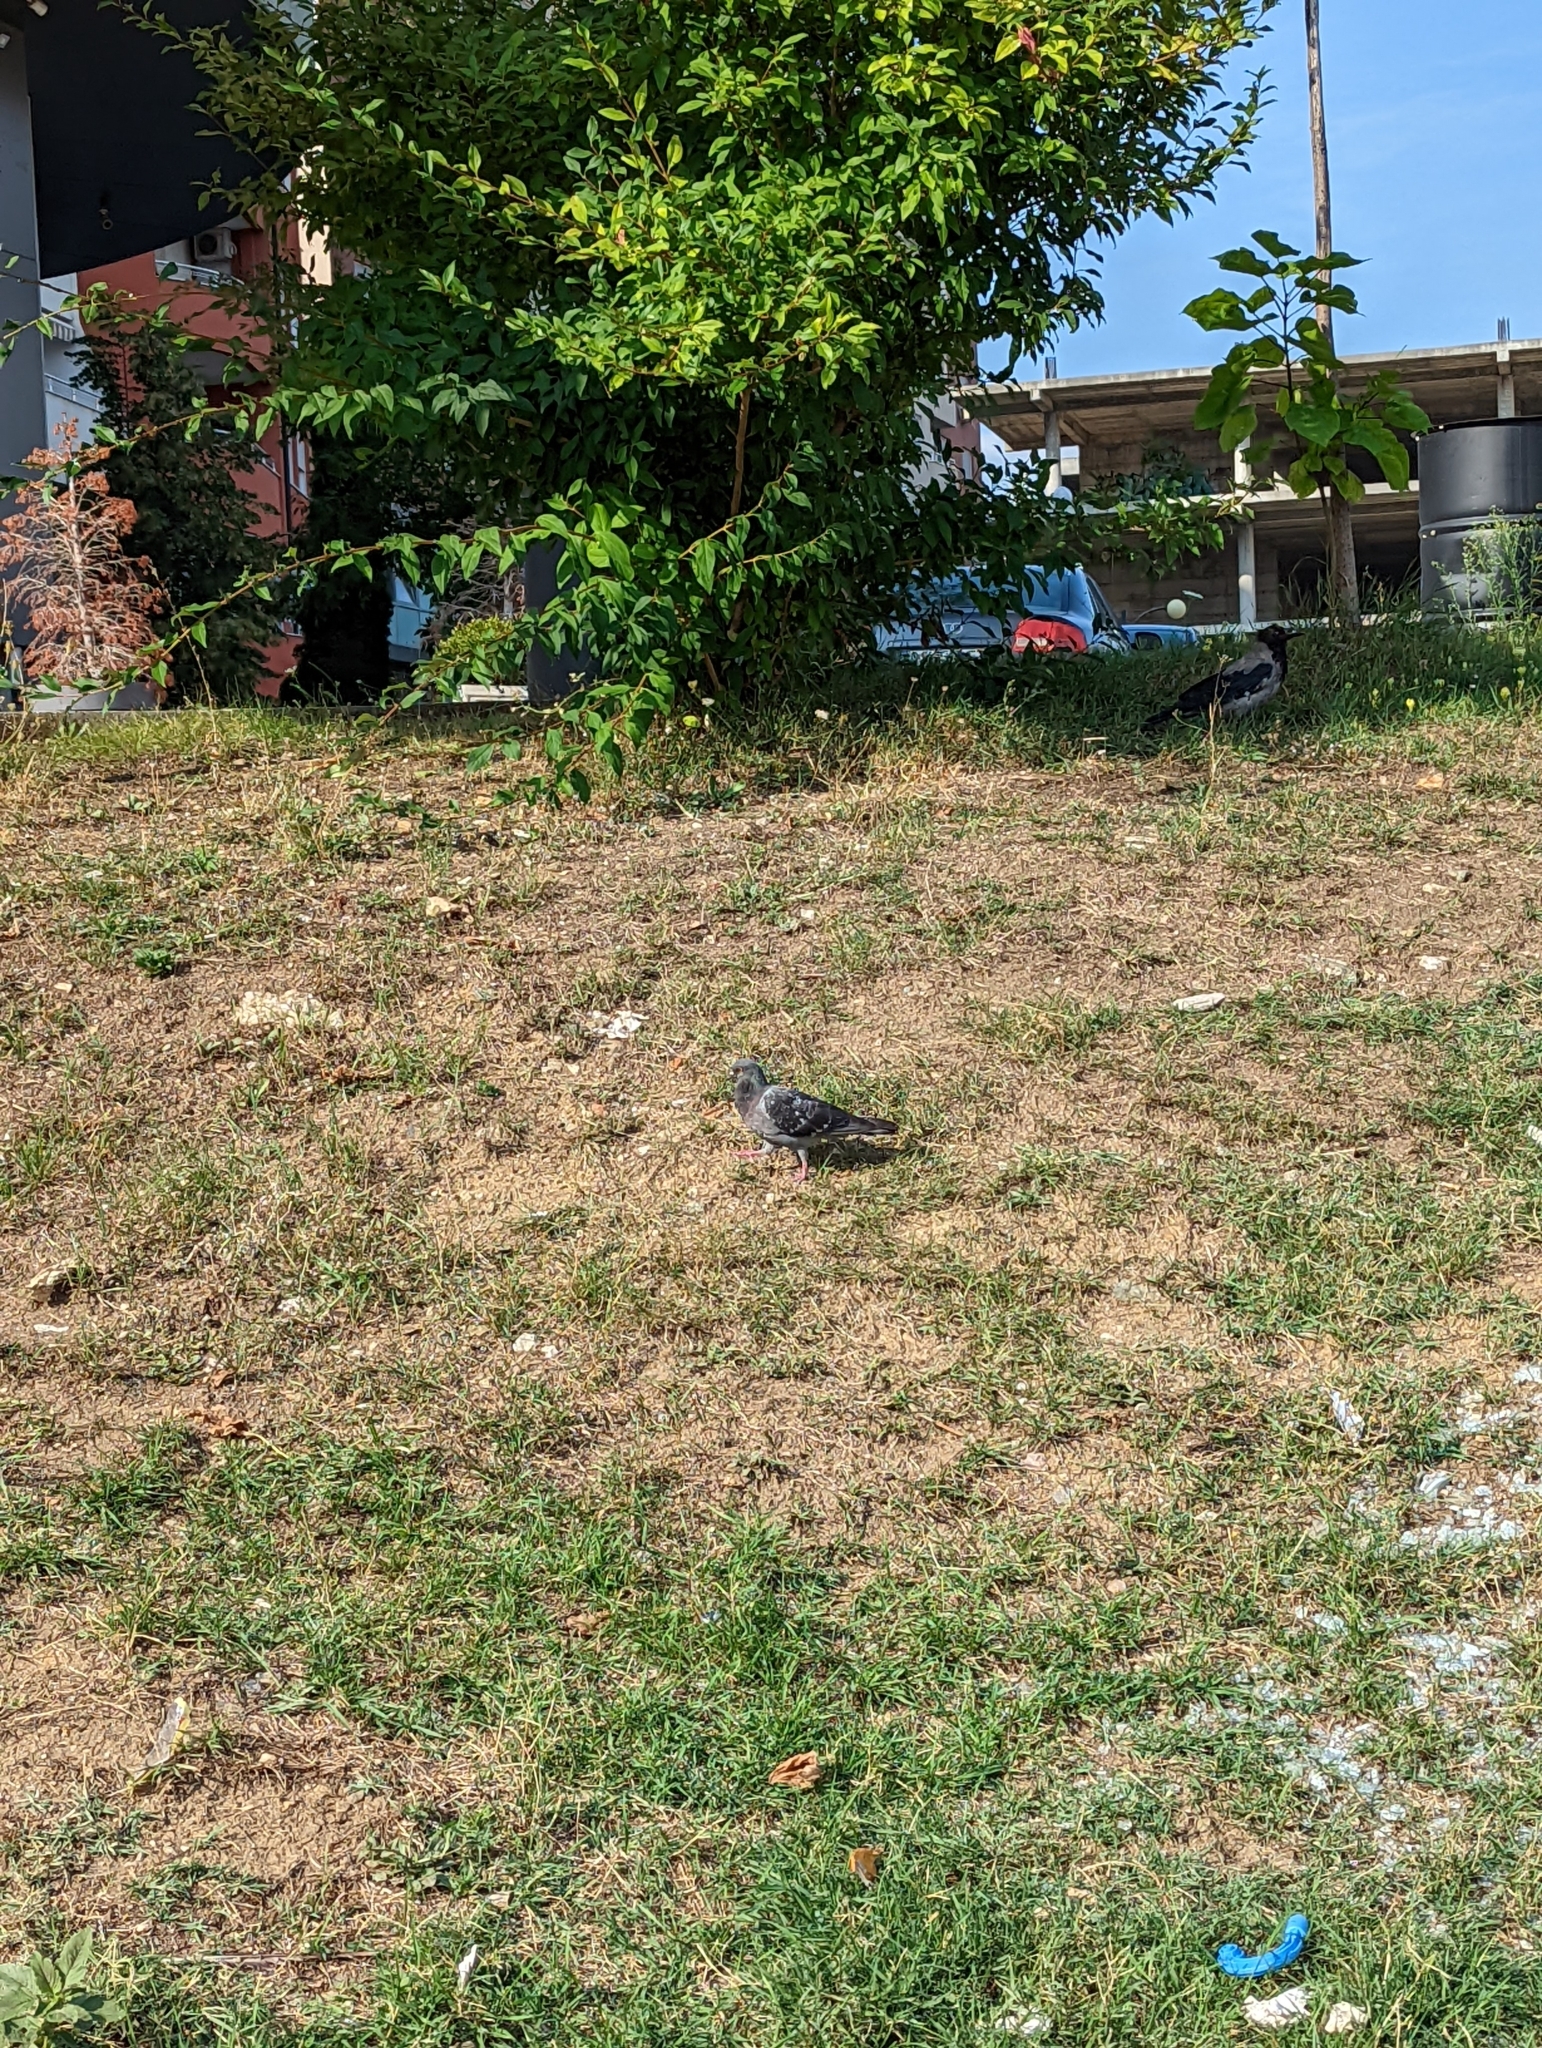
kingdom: Animalia
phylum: Chordata
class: Aves
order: Columbiformes
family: Columbidae
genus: Columba
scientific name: Columba livia
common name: Rock pigeon
